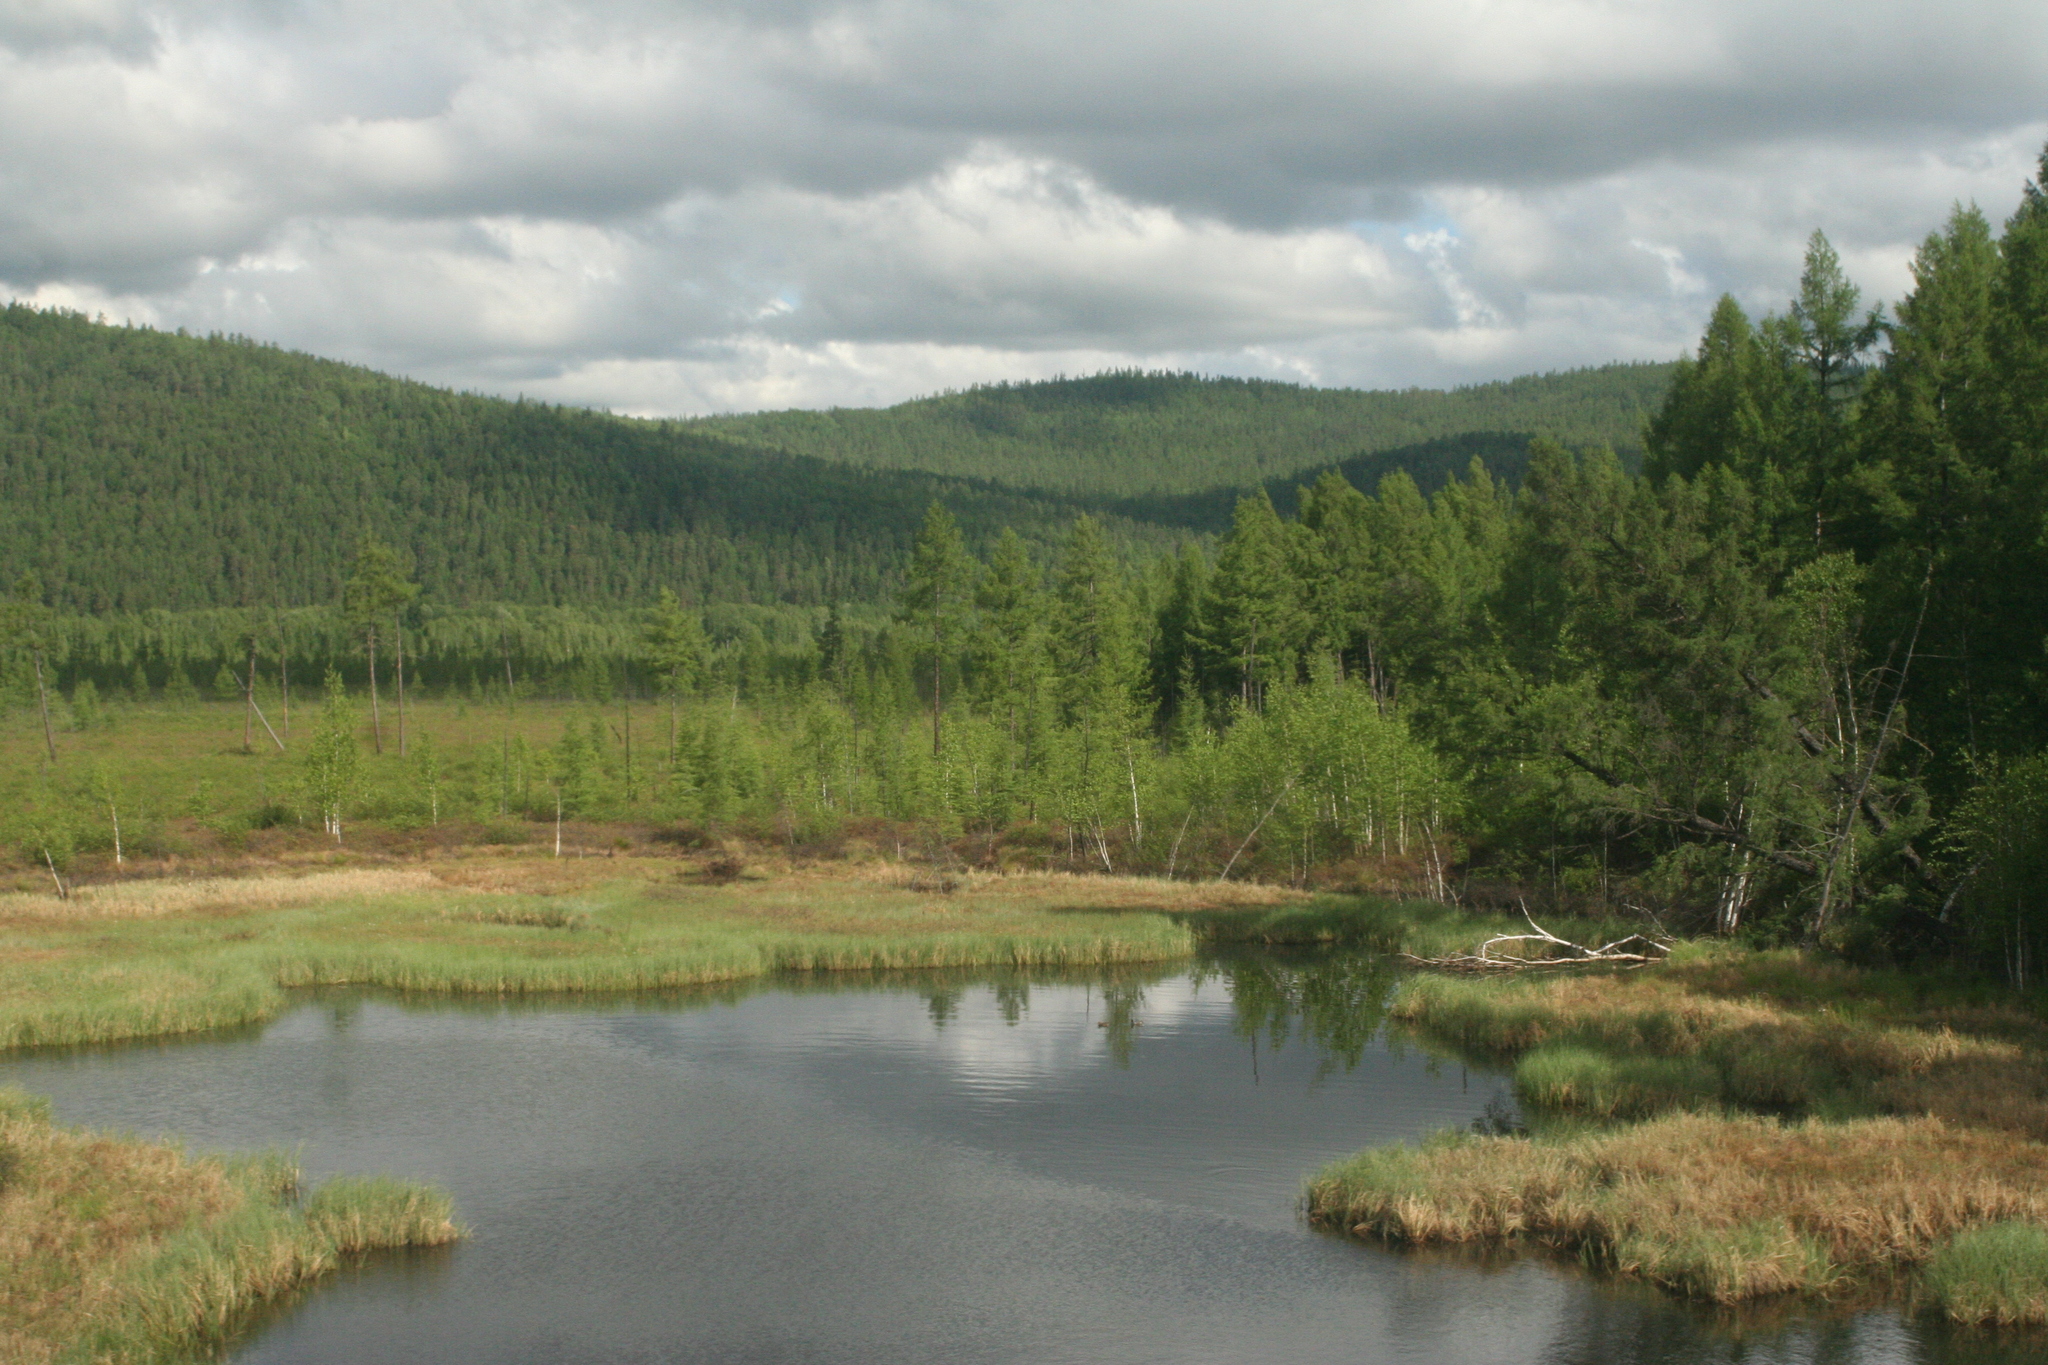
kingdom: Plantae
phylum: Tracheophyta
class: Pinopsida
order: Pinales
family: Pinaceae
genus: Larix
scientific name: Larix gmelinii
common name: Dahurian larch
